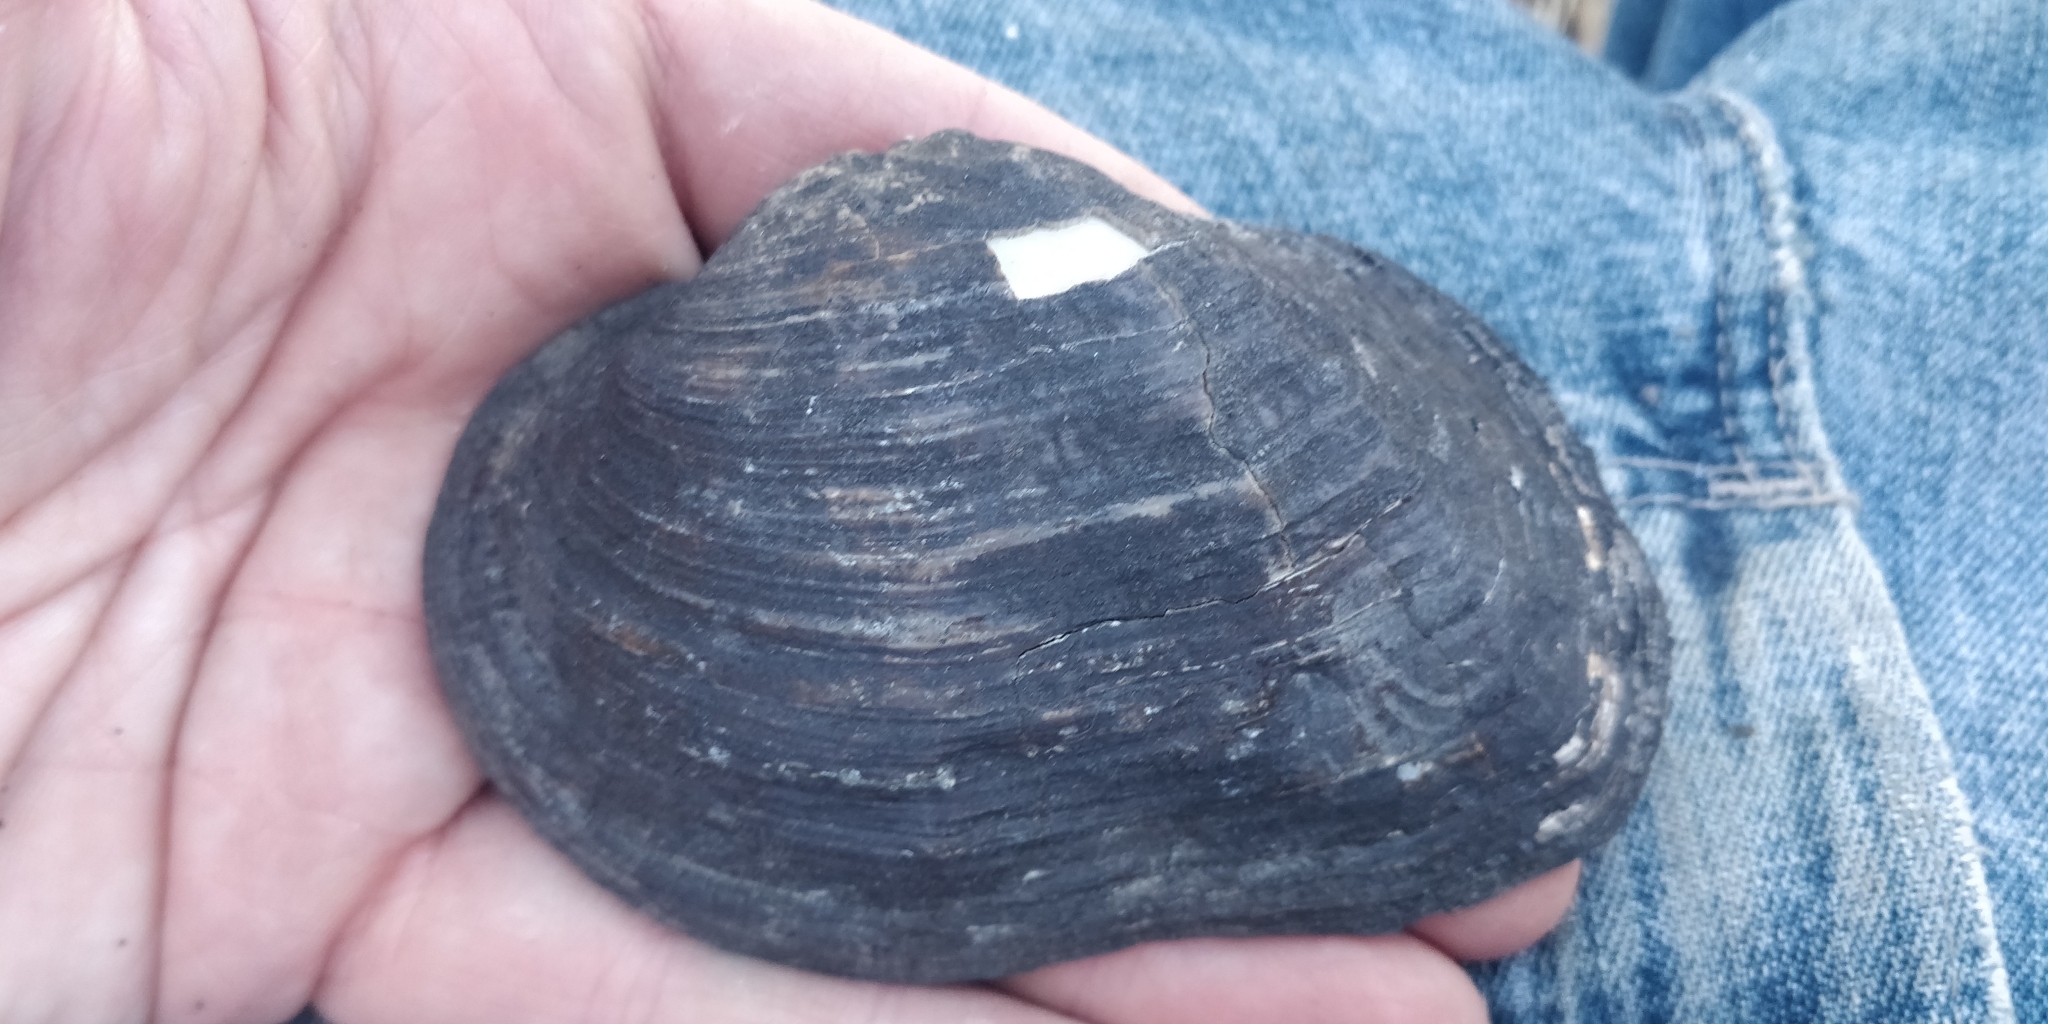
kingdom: Animalia
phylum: Mollusca
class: Bivalvia
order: Unionida
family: Unionidae
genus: Arcidens
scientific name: Arcidens confragosus
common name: Rock pocketbook
